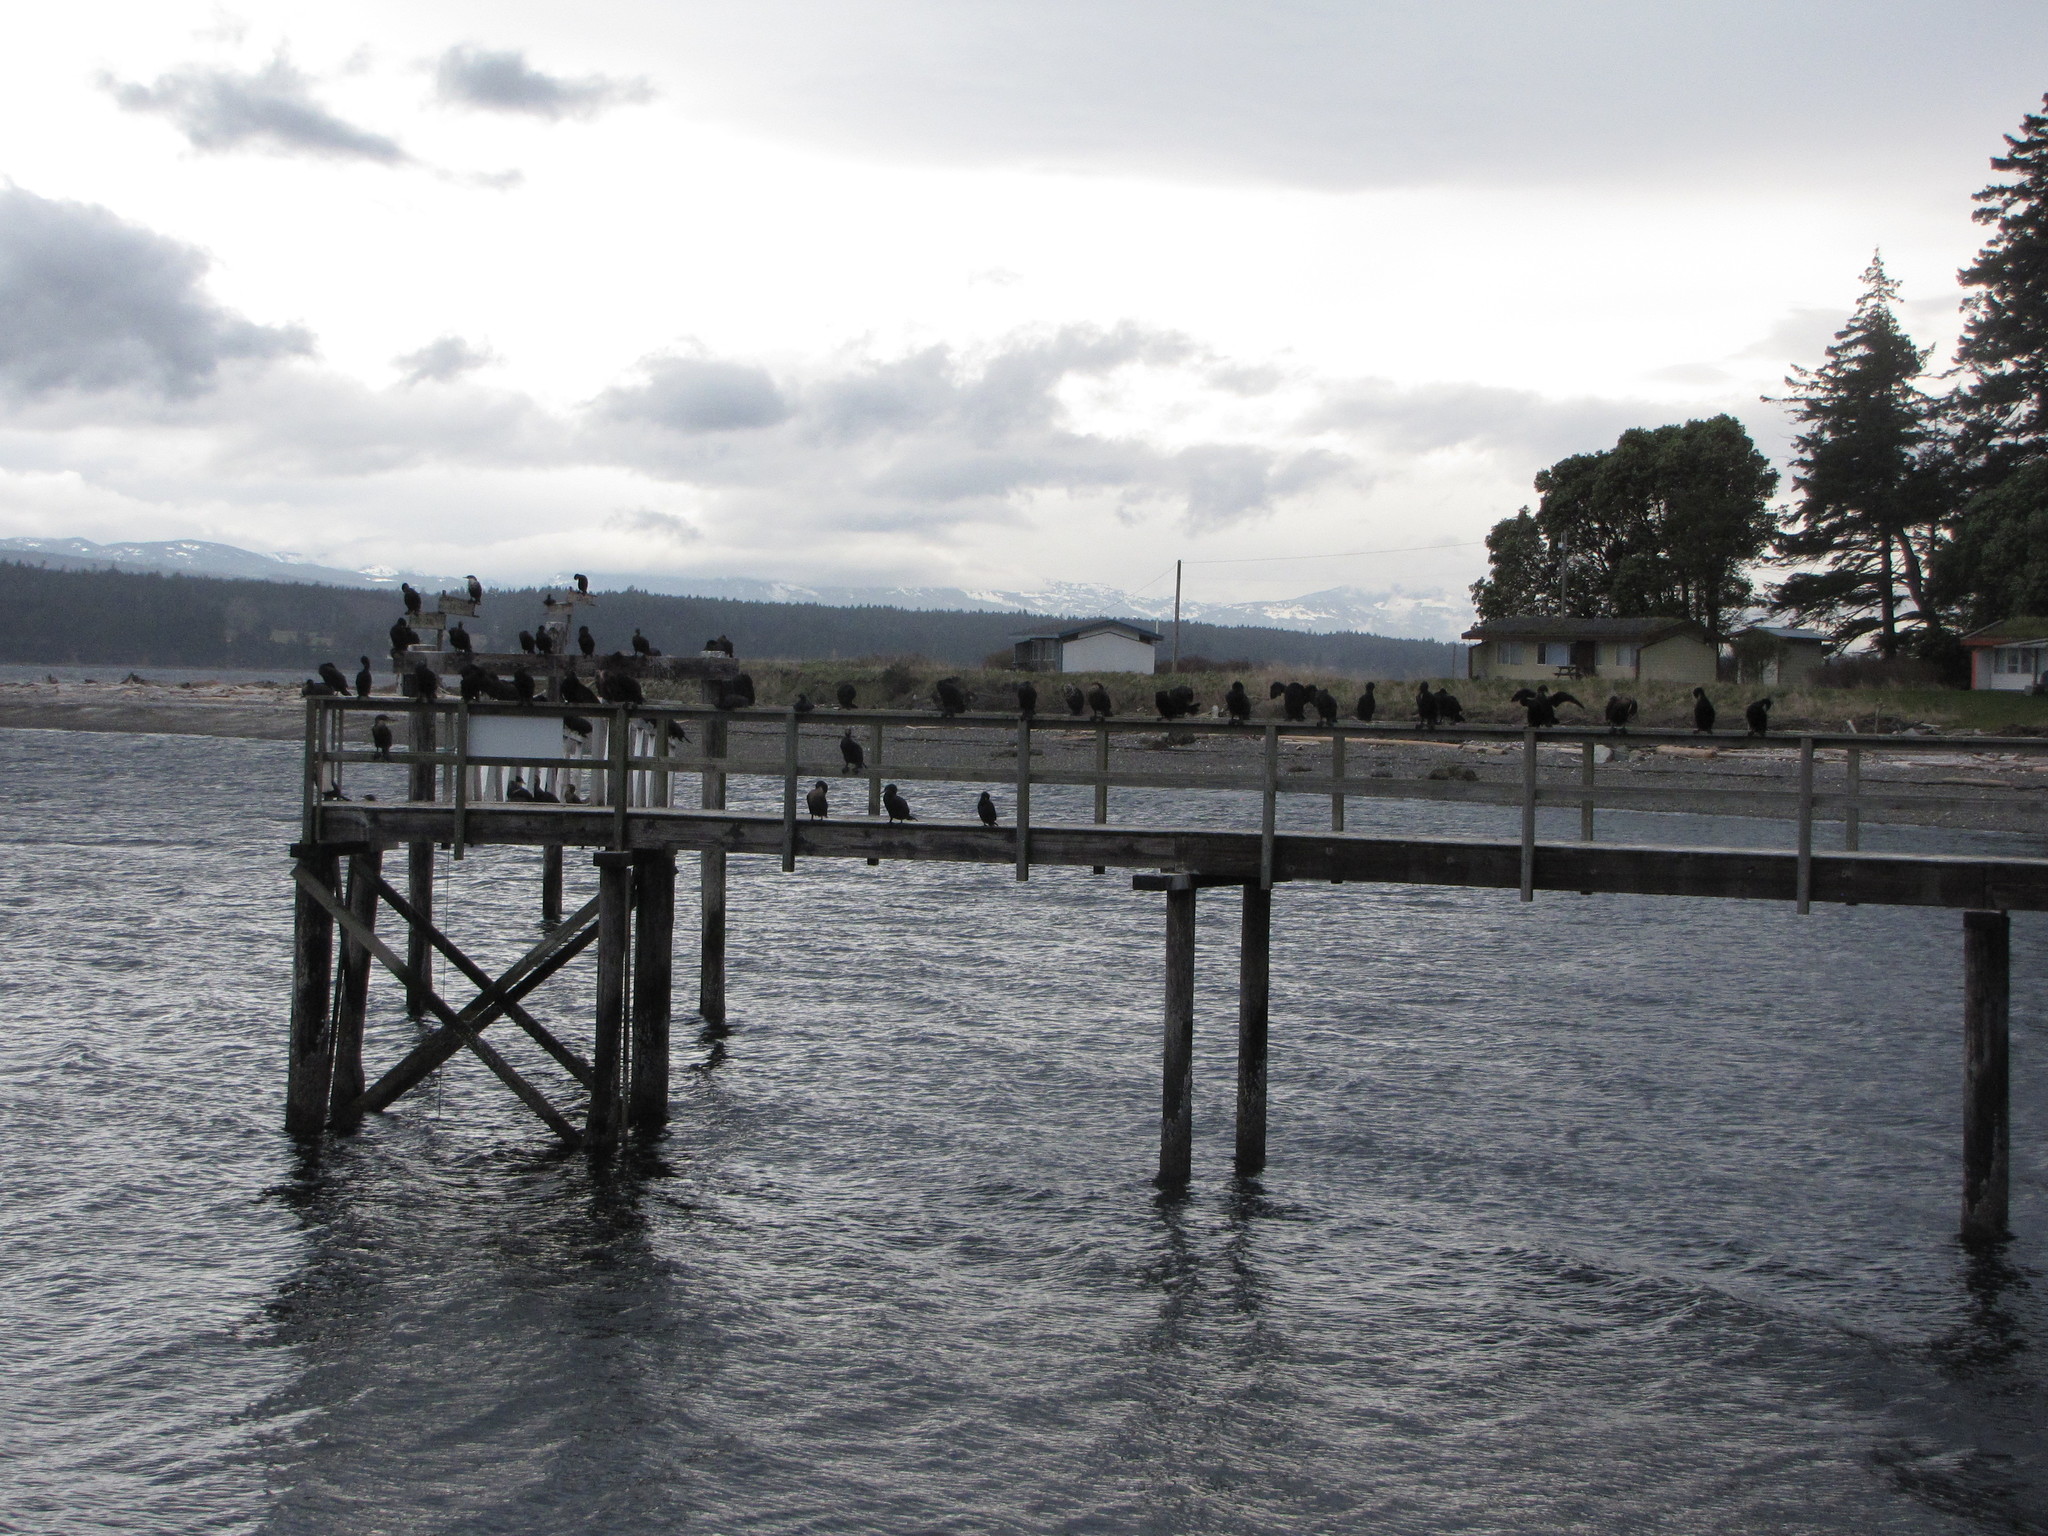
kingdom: Animalia
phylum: Chordata
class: Aves
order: Suliformes
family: Phalacrocoracidae
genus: Phalacrocorax
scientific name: Phalacrocorax auritus
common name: Double-crested cormorant
